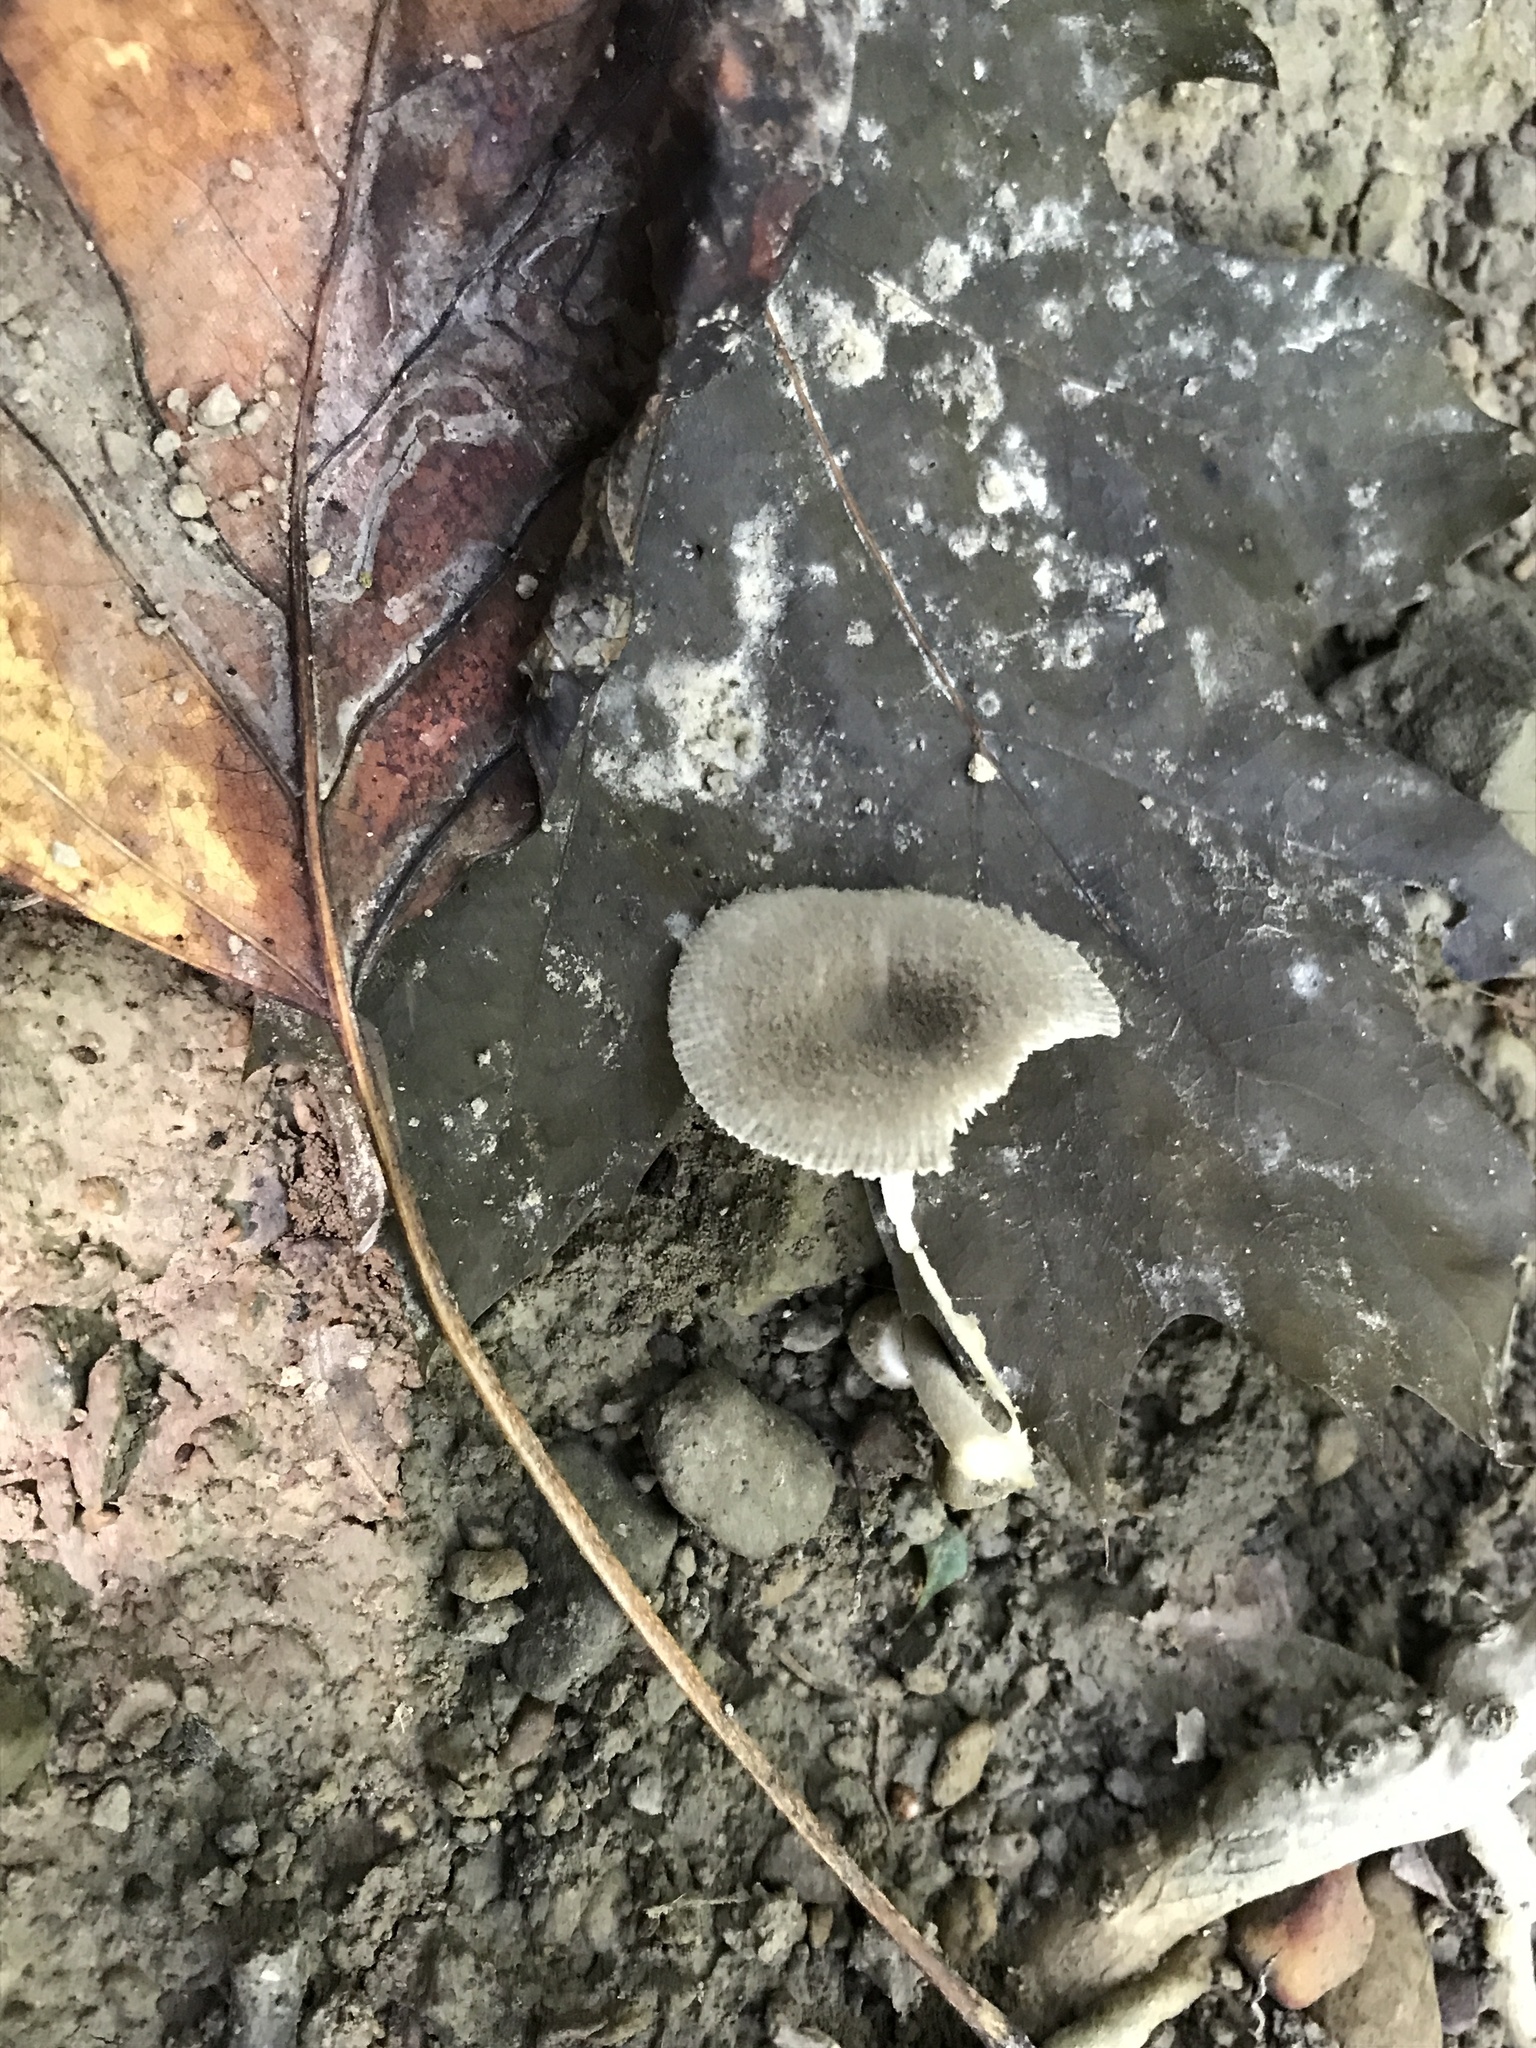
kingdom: Fungi
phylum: Basidiomycota
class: Agaricomycetes
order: Agaricales
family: Amanitaceae
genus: Amanita
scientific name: Amanita farinosa
